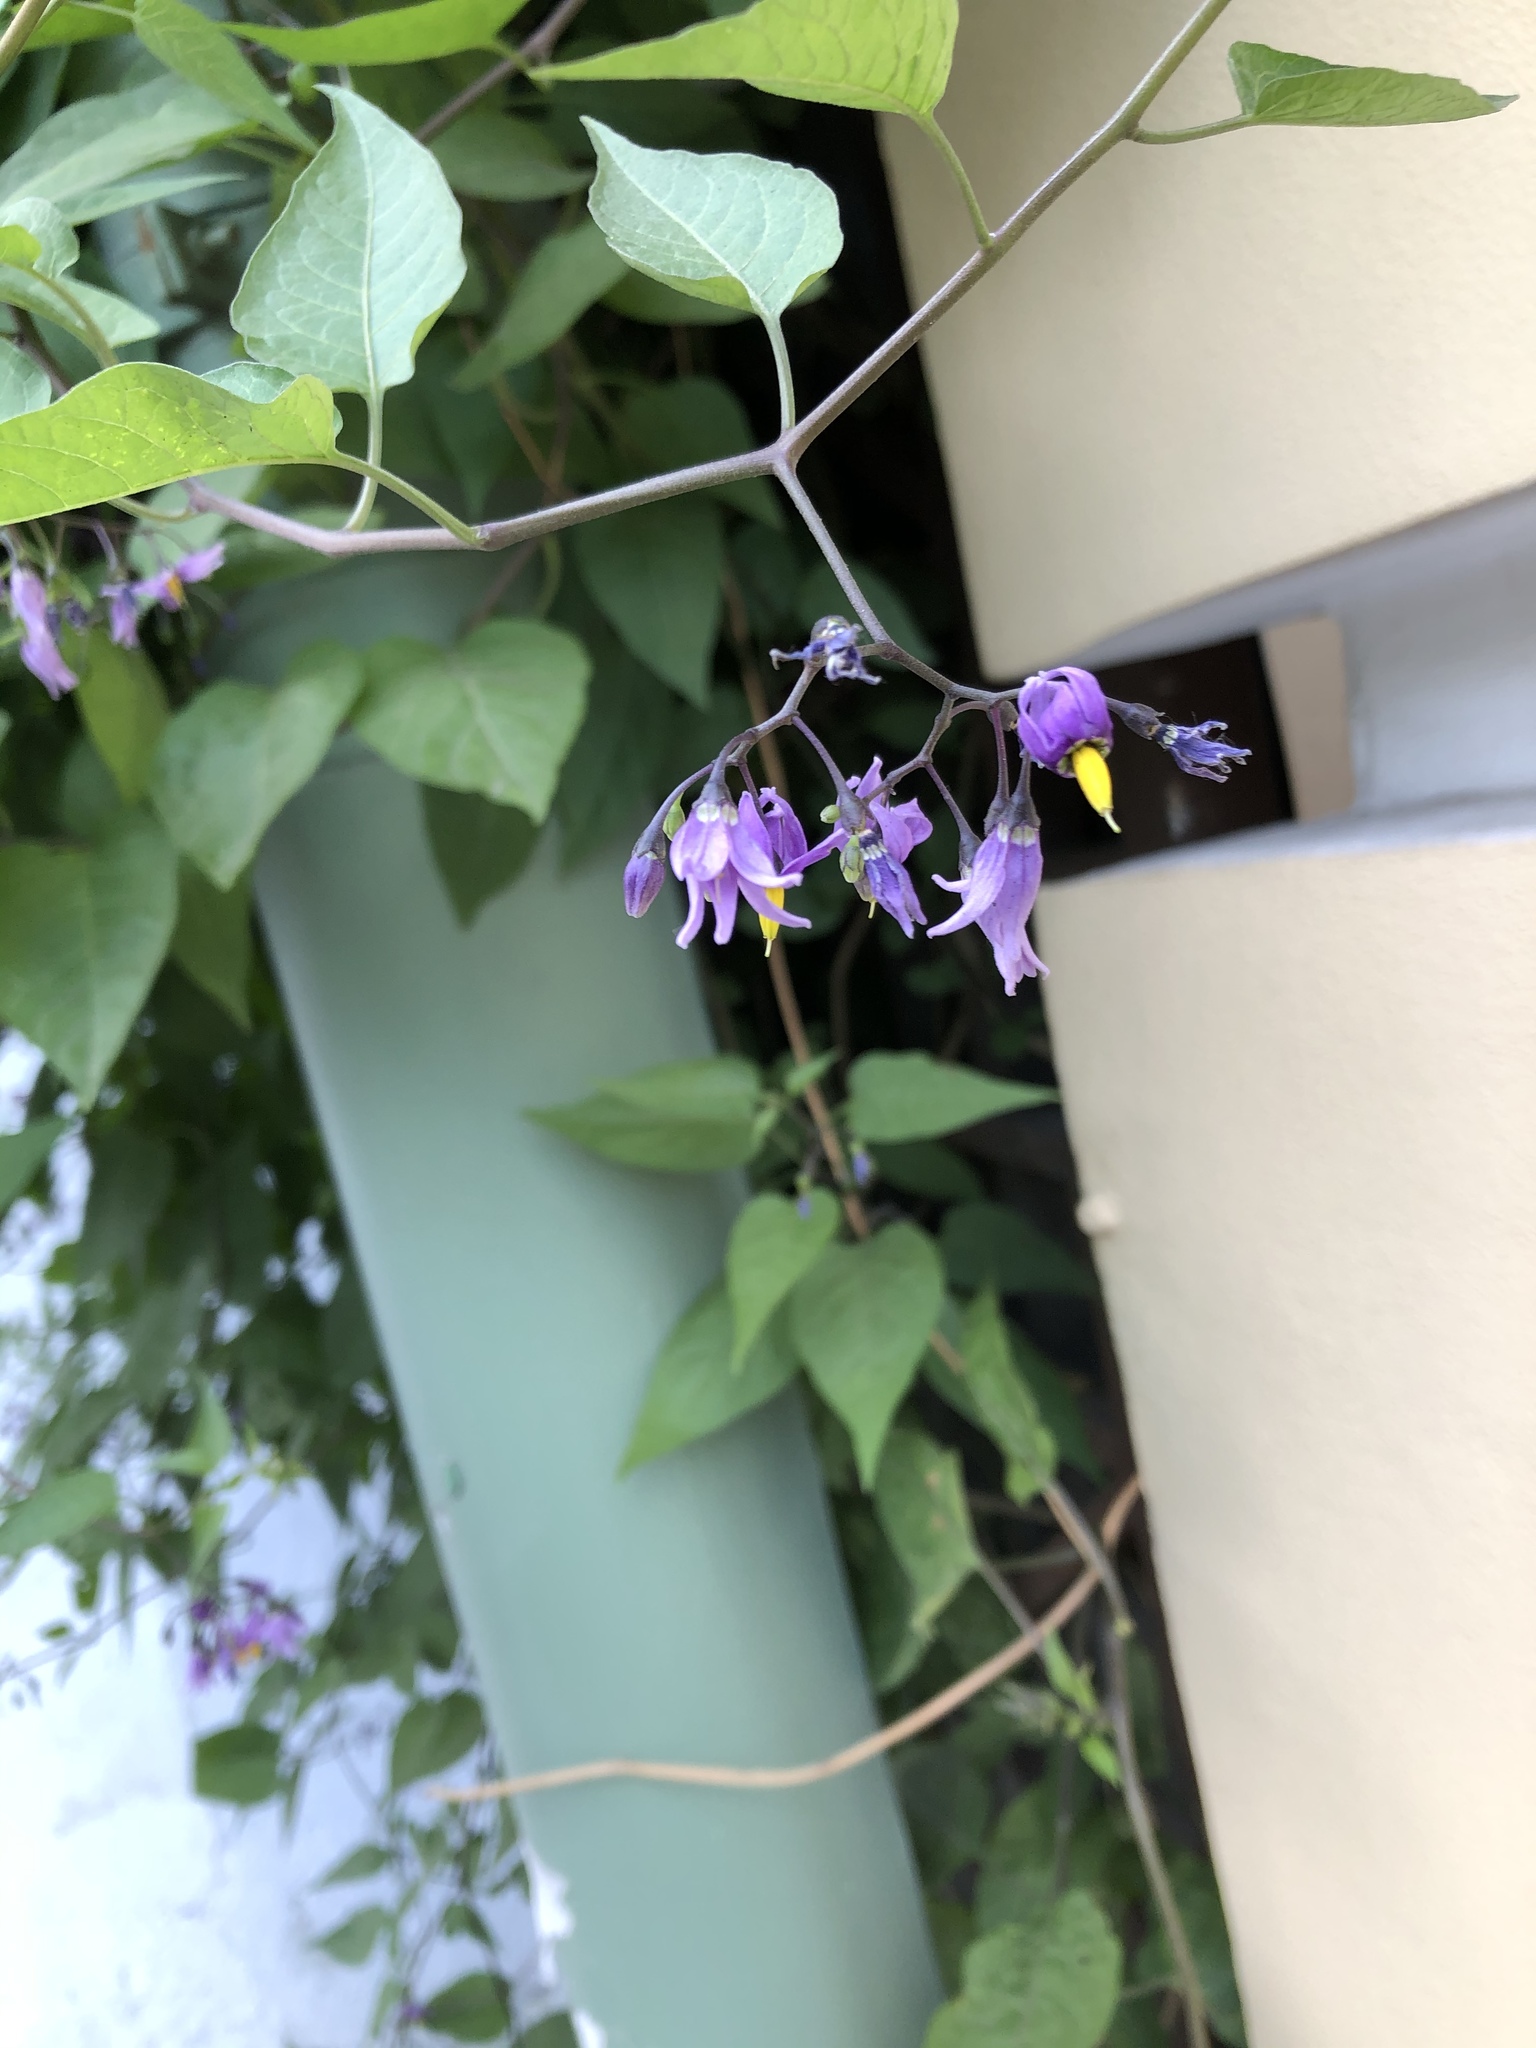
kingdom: Plantae
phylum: Tracheophyta
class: Magnoliopsida
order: Solanales
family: Solanaceae
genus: Solanum
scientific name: Solanum dulcamara
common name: Climbing nightshade
